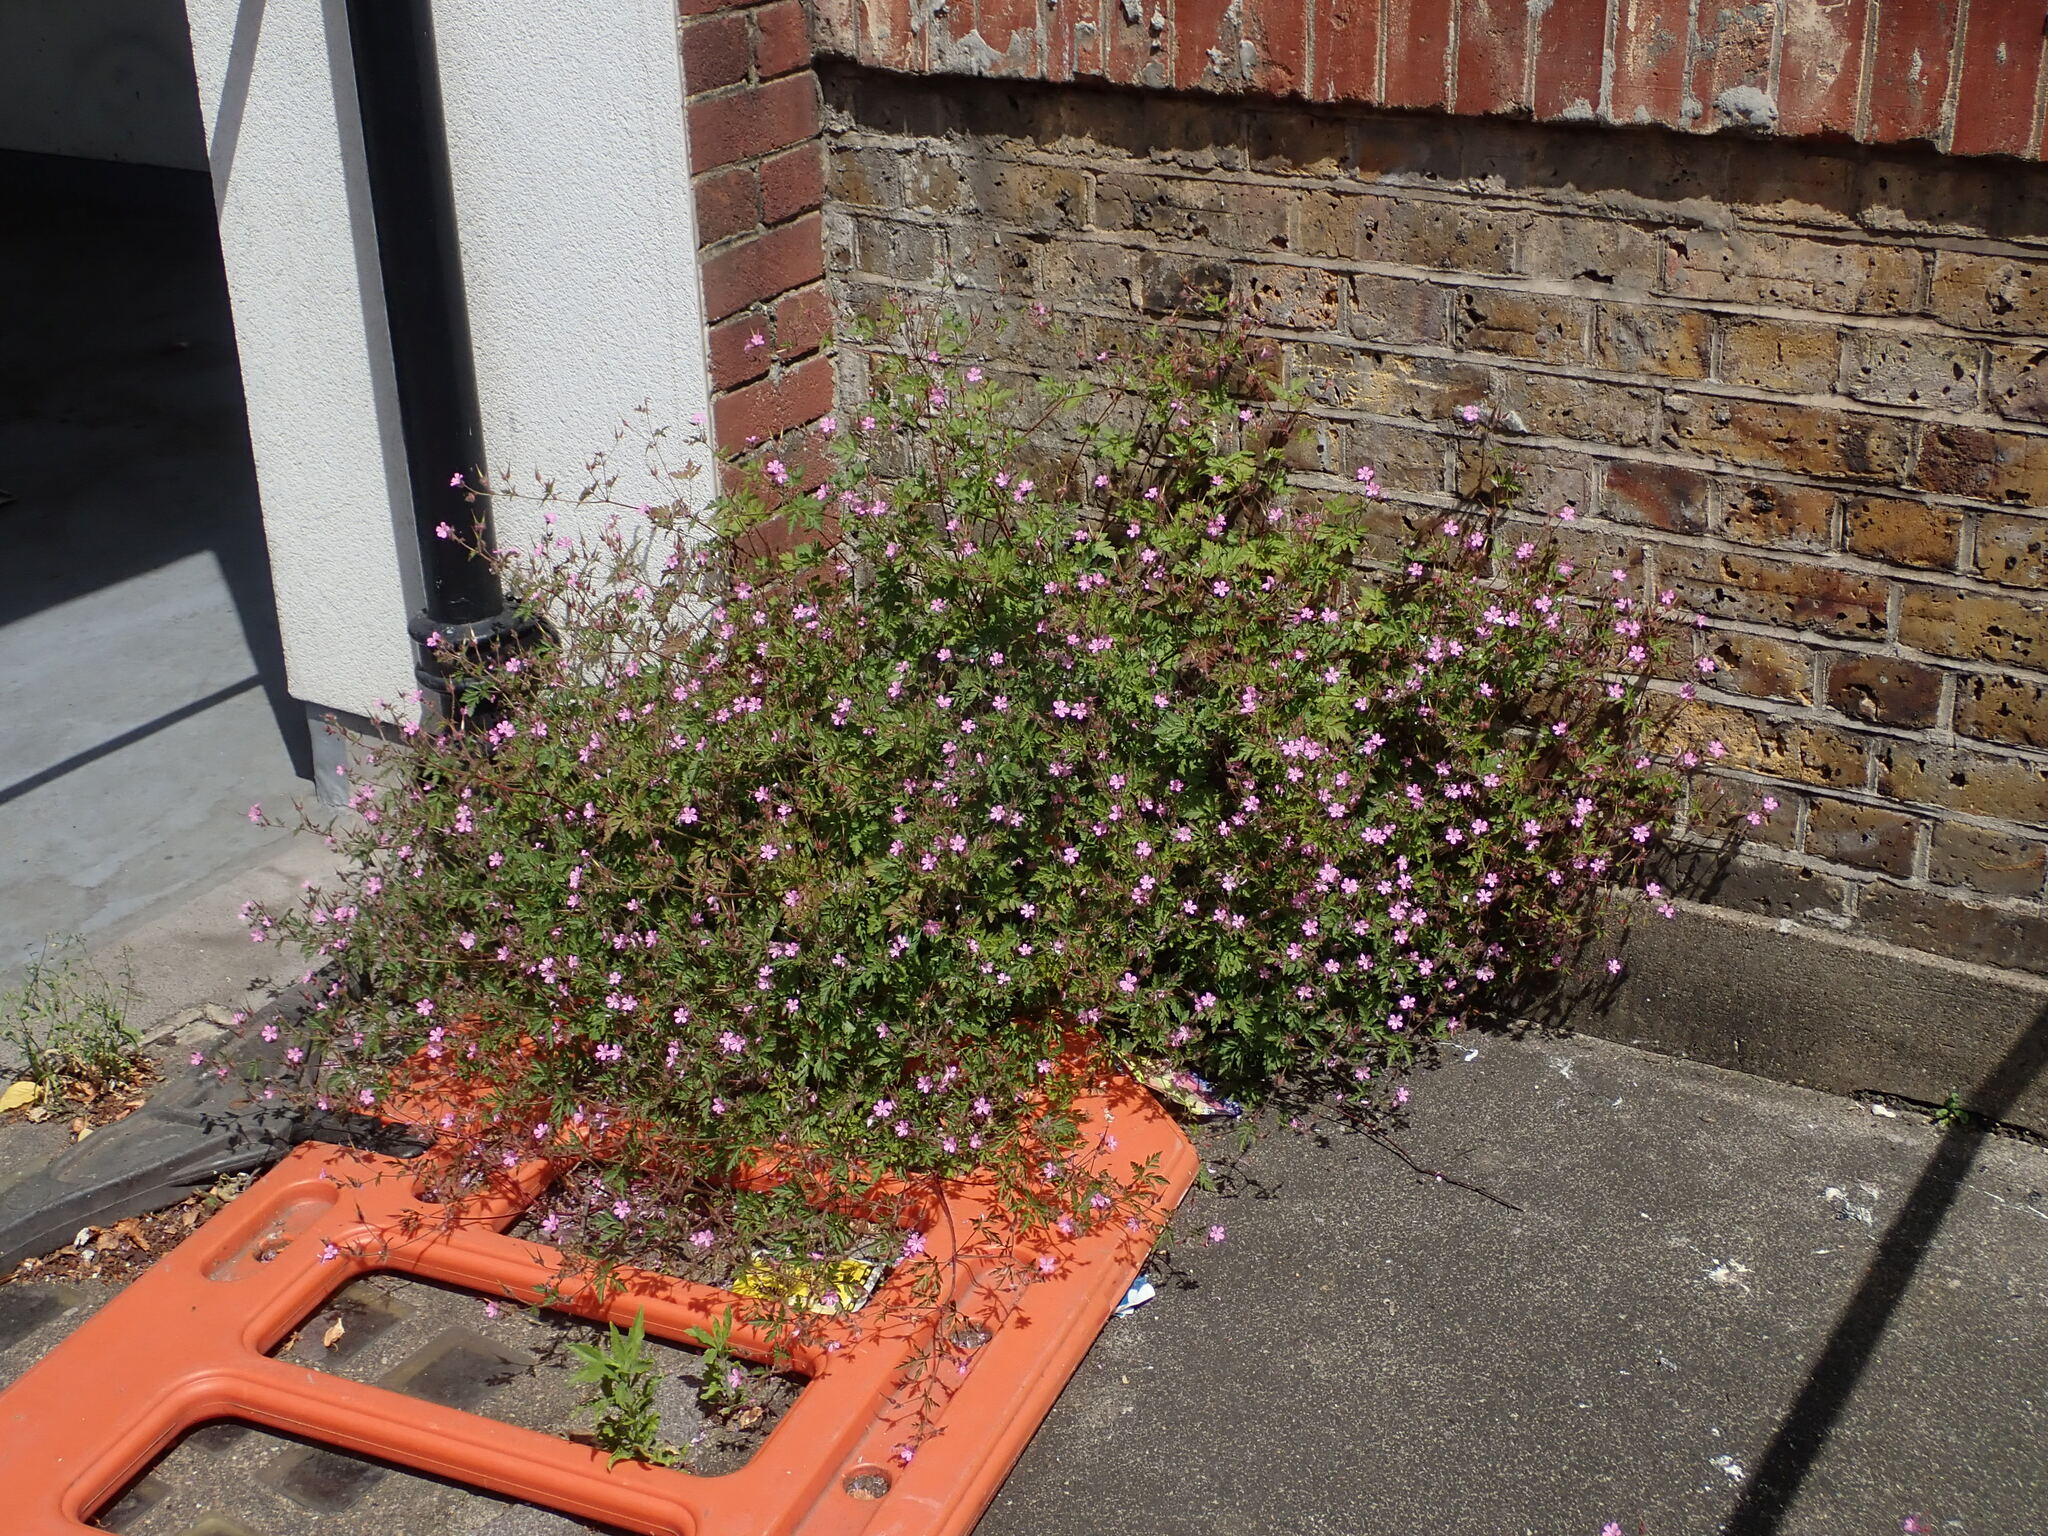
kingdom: Plantae
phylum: Tracheophyta
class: Magnoliopsida
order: Geraniales
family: Geraniaceae
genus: Geranium
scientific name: Geranium robertianum
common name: Herb-robert
